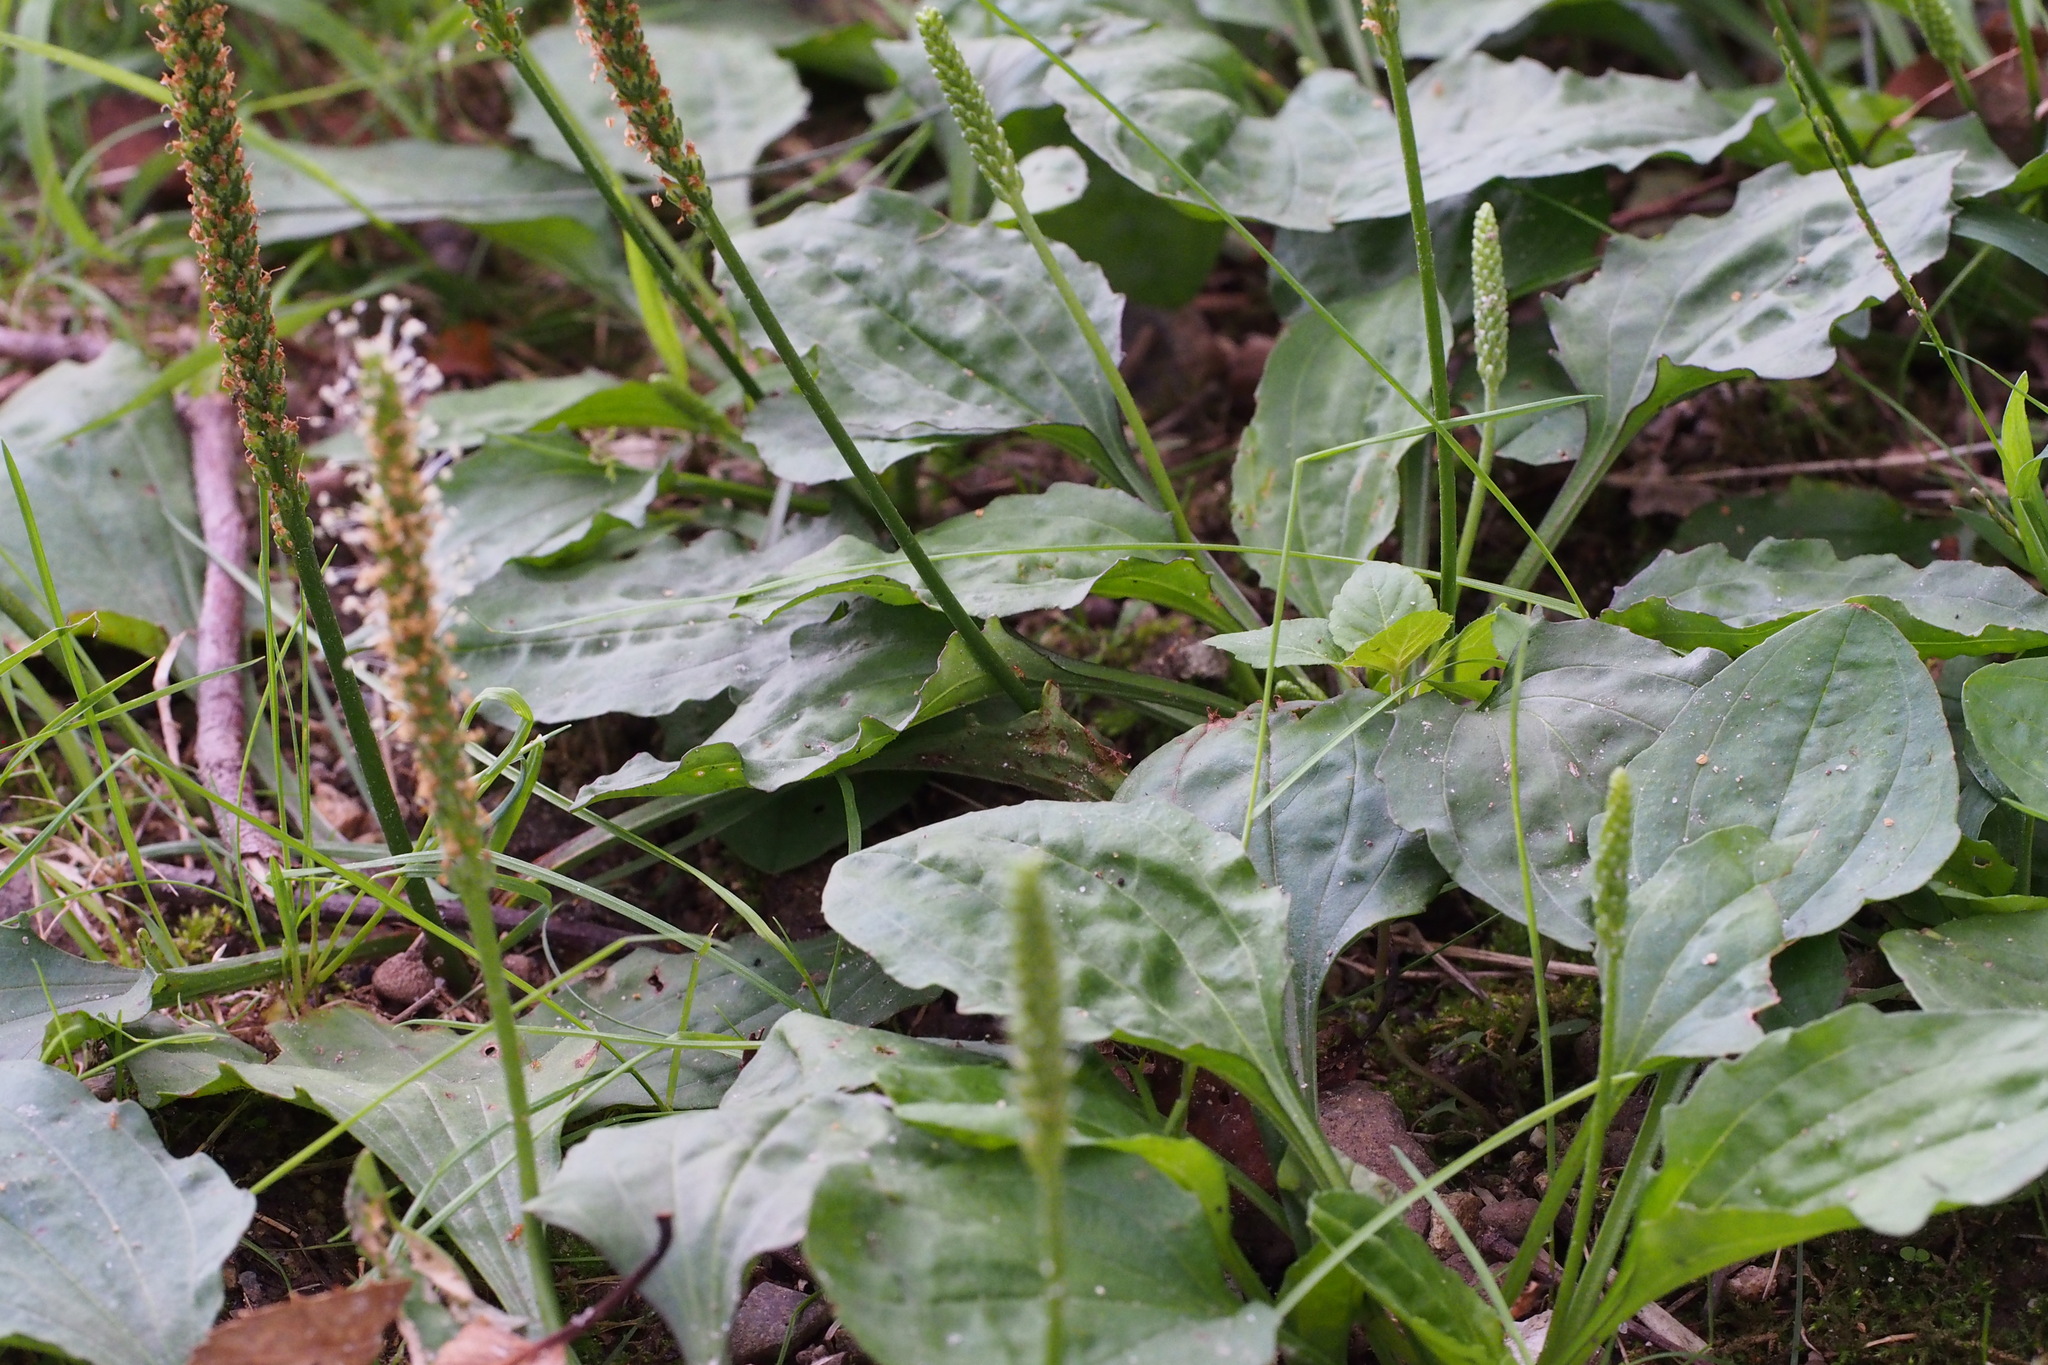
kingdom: Plantae
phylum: Tracheophyta
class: Magnoliopsida
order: Lamiales
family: Plantaginaceae
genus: Plantago
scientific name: Plantago major
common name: Common plantain
